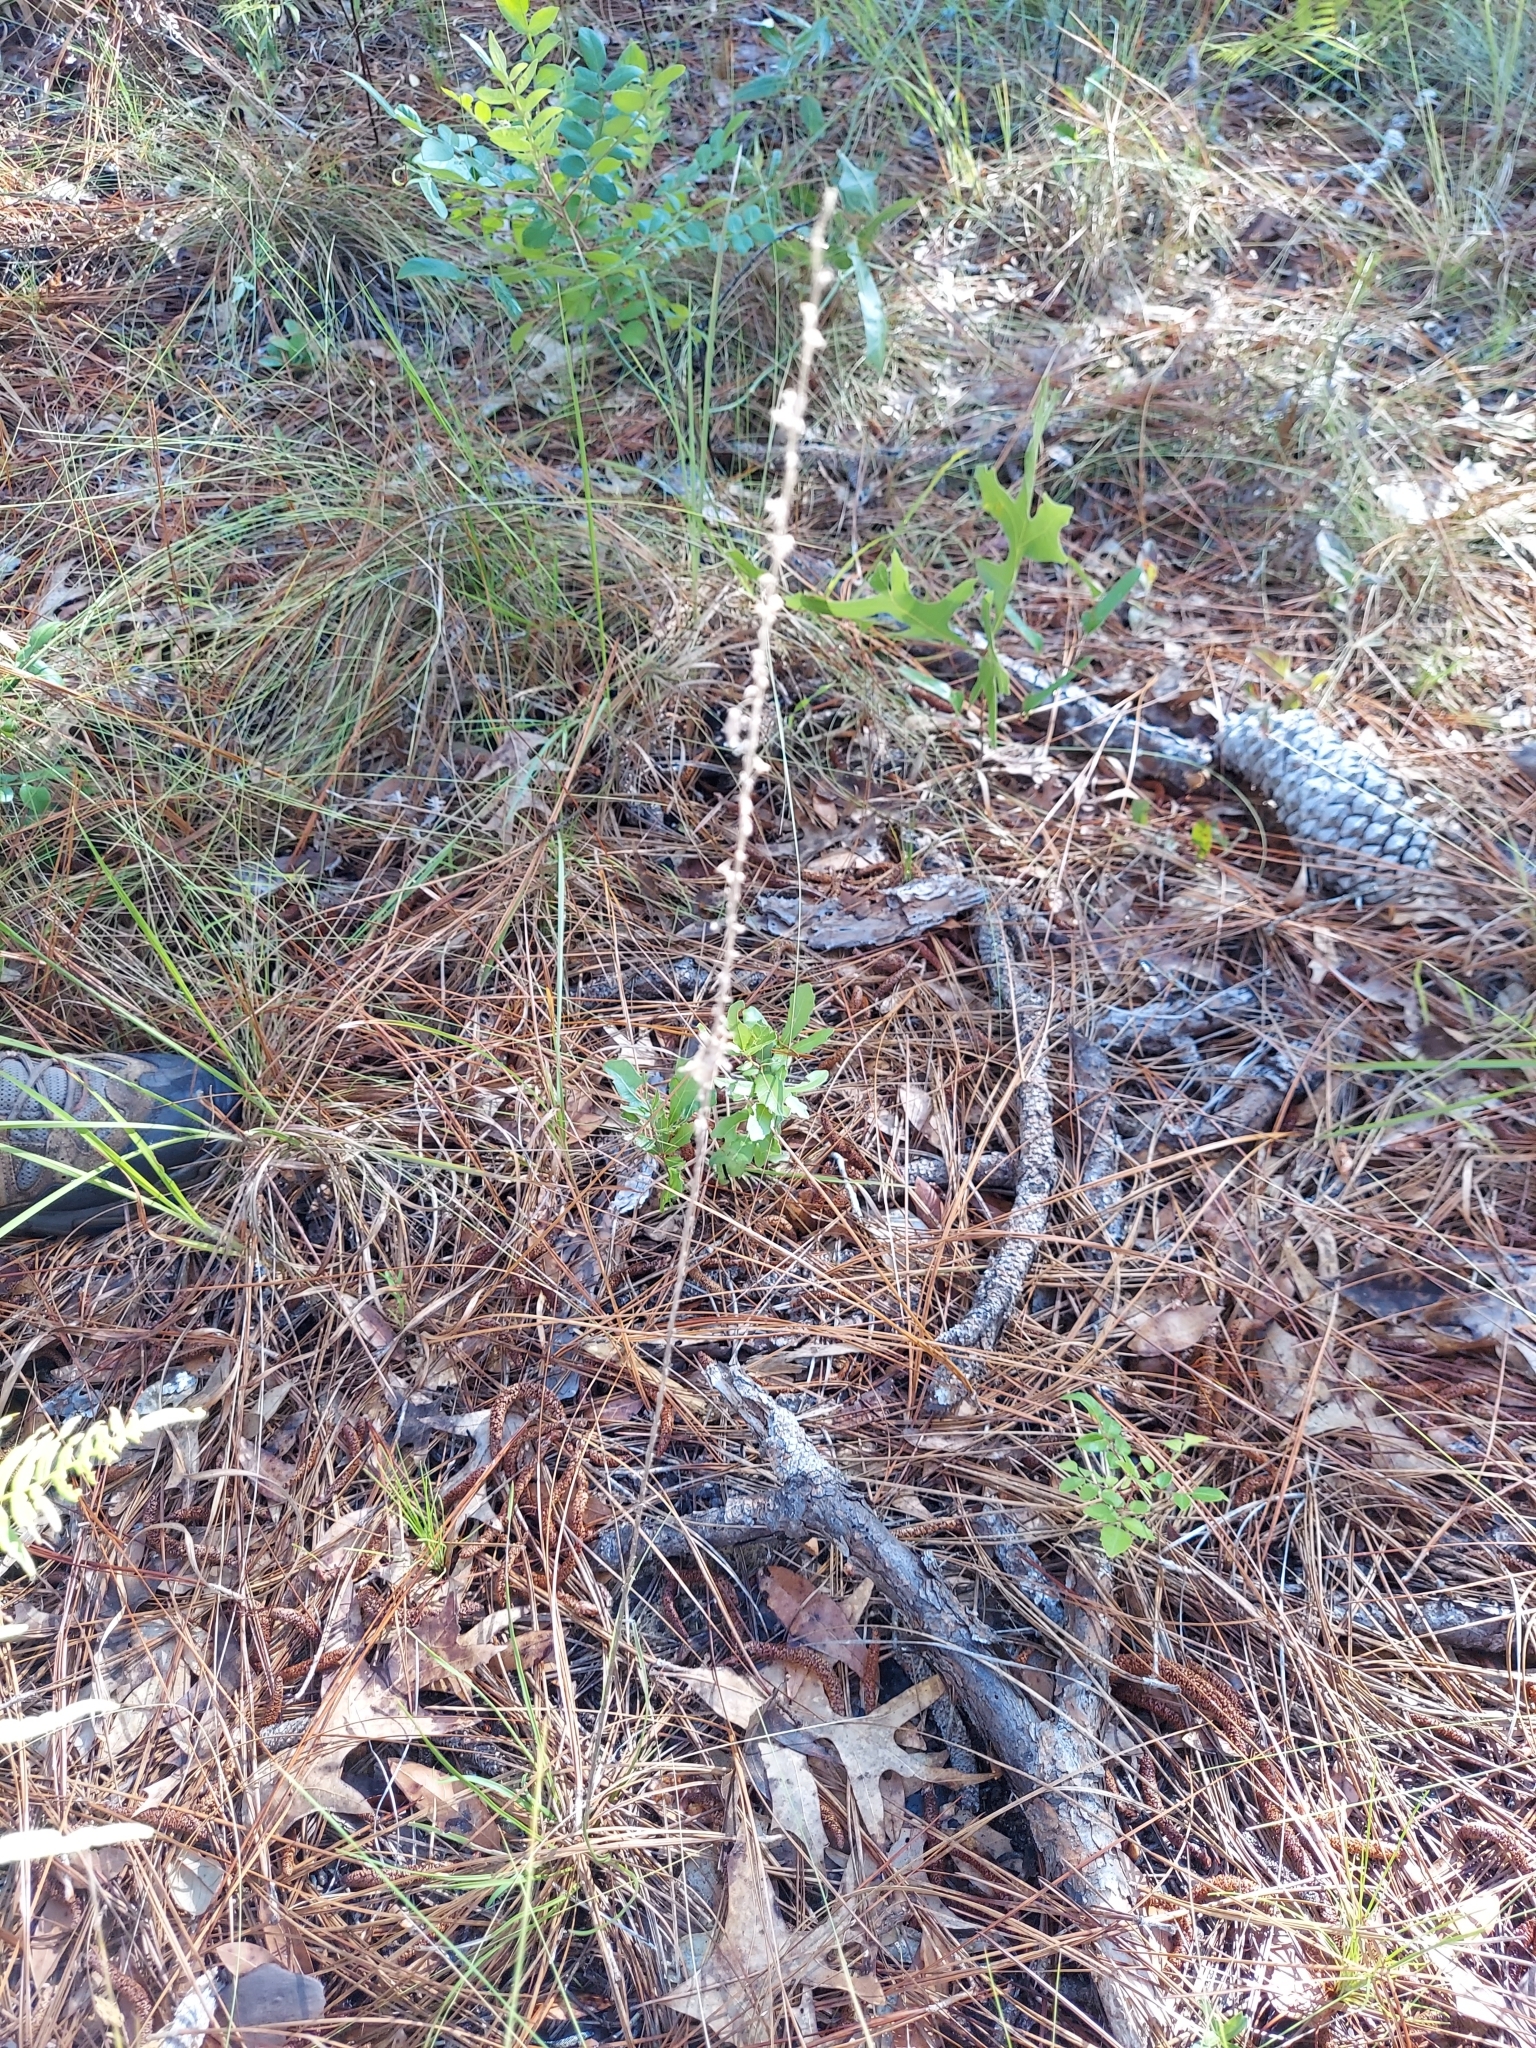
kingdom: Plantae
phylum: Tracheophyta
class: Magnoliopsida
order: Asterales
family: Asteraceae
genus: Liatris
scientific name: Liatris tenuifolia
